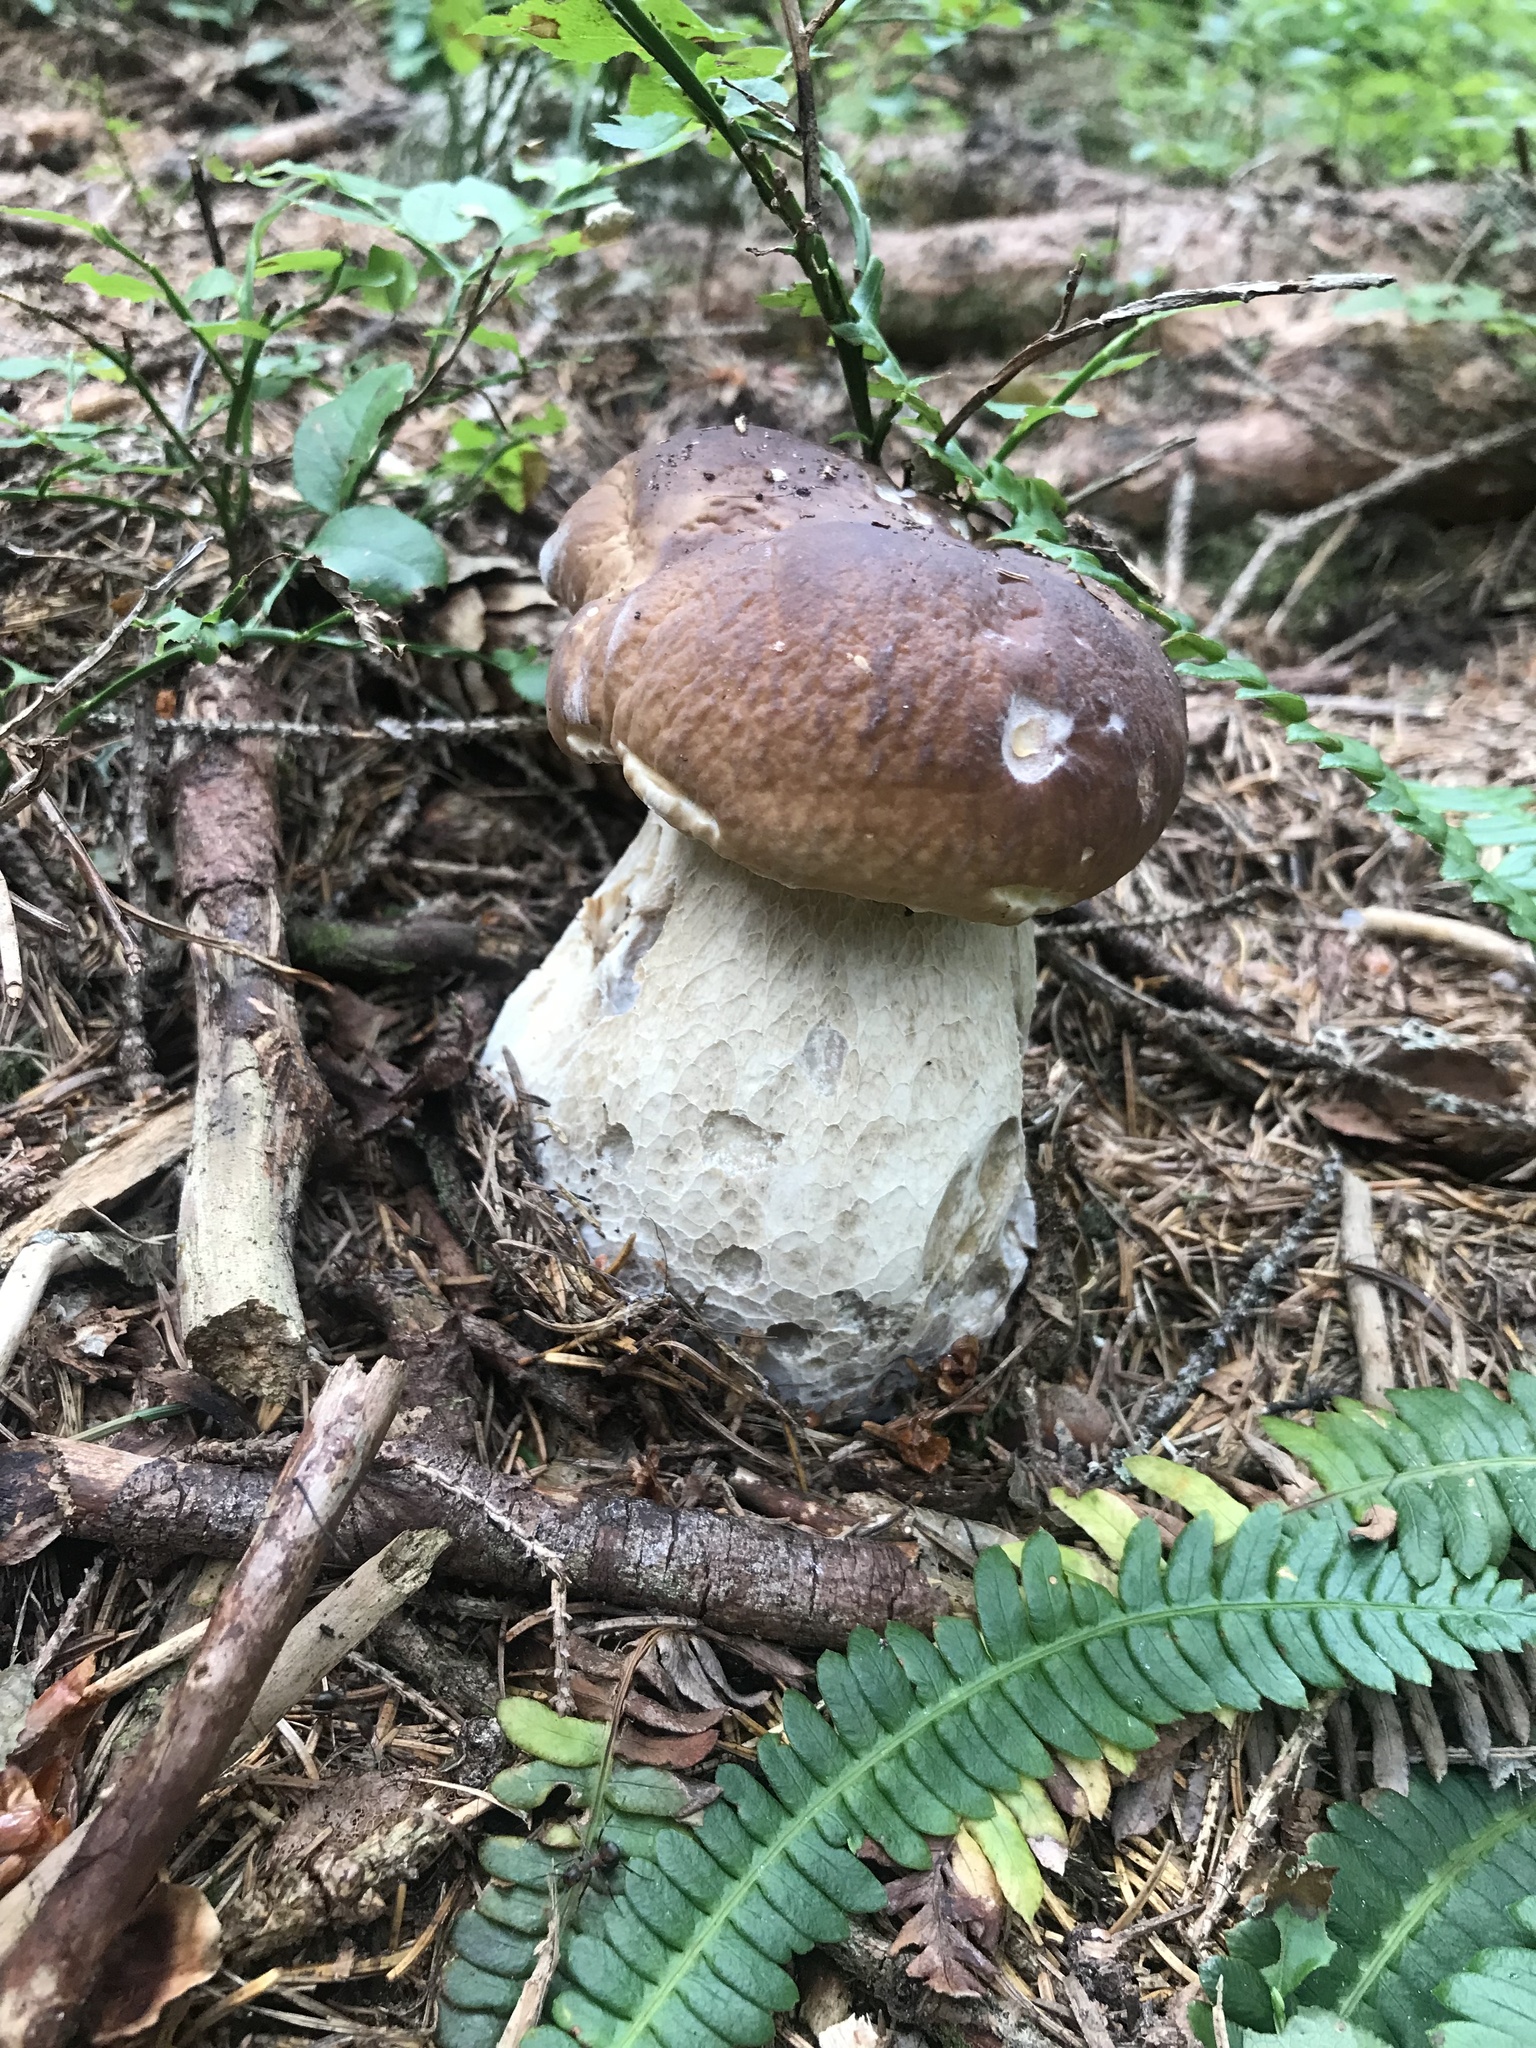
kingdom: Fungi
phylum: Basidiomycota
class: Agaricomycetes
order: Boletales
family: Boletaceae
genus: Boletus
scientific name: Boletus edulis
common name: Cep
